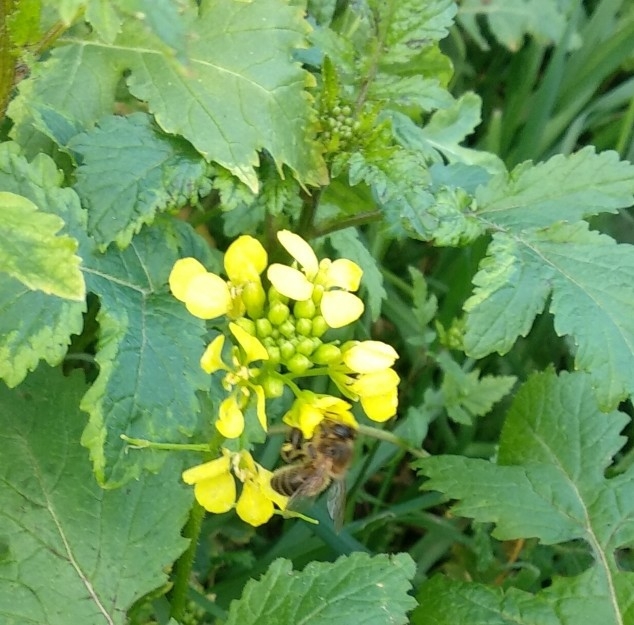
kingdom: Animalia
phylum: Arthropoda
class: Insecta
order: Hymenoptera
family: Apidae
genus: Apis
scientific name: Apis mellifera
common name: Honey bee
